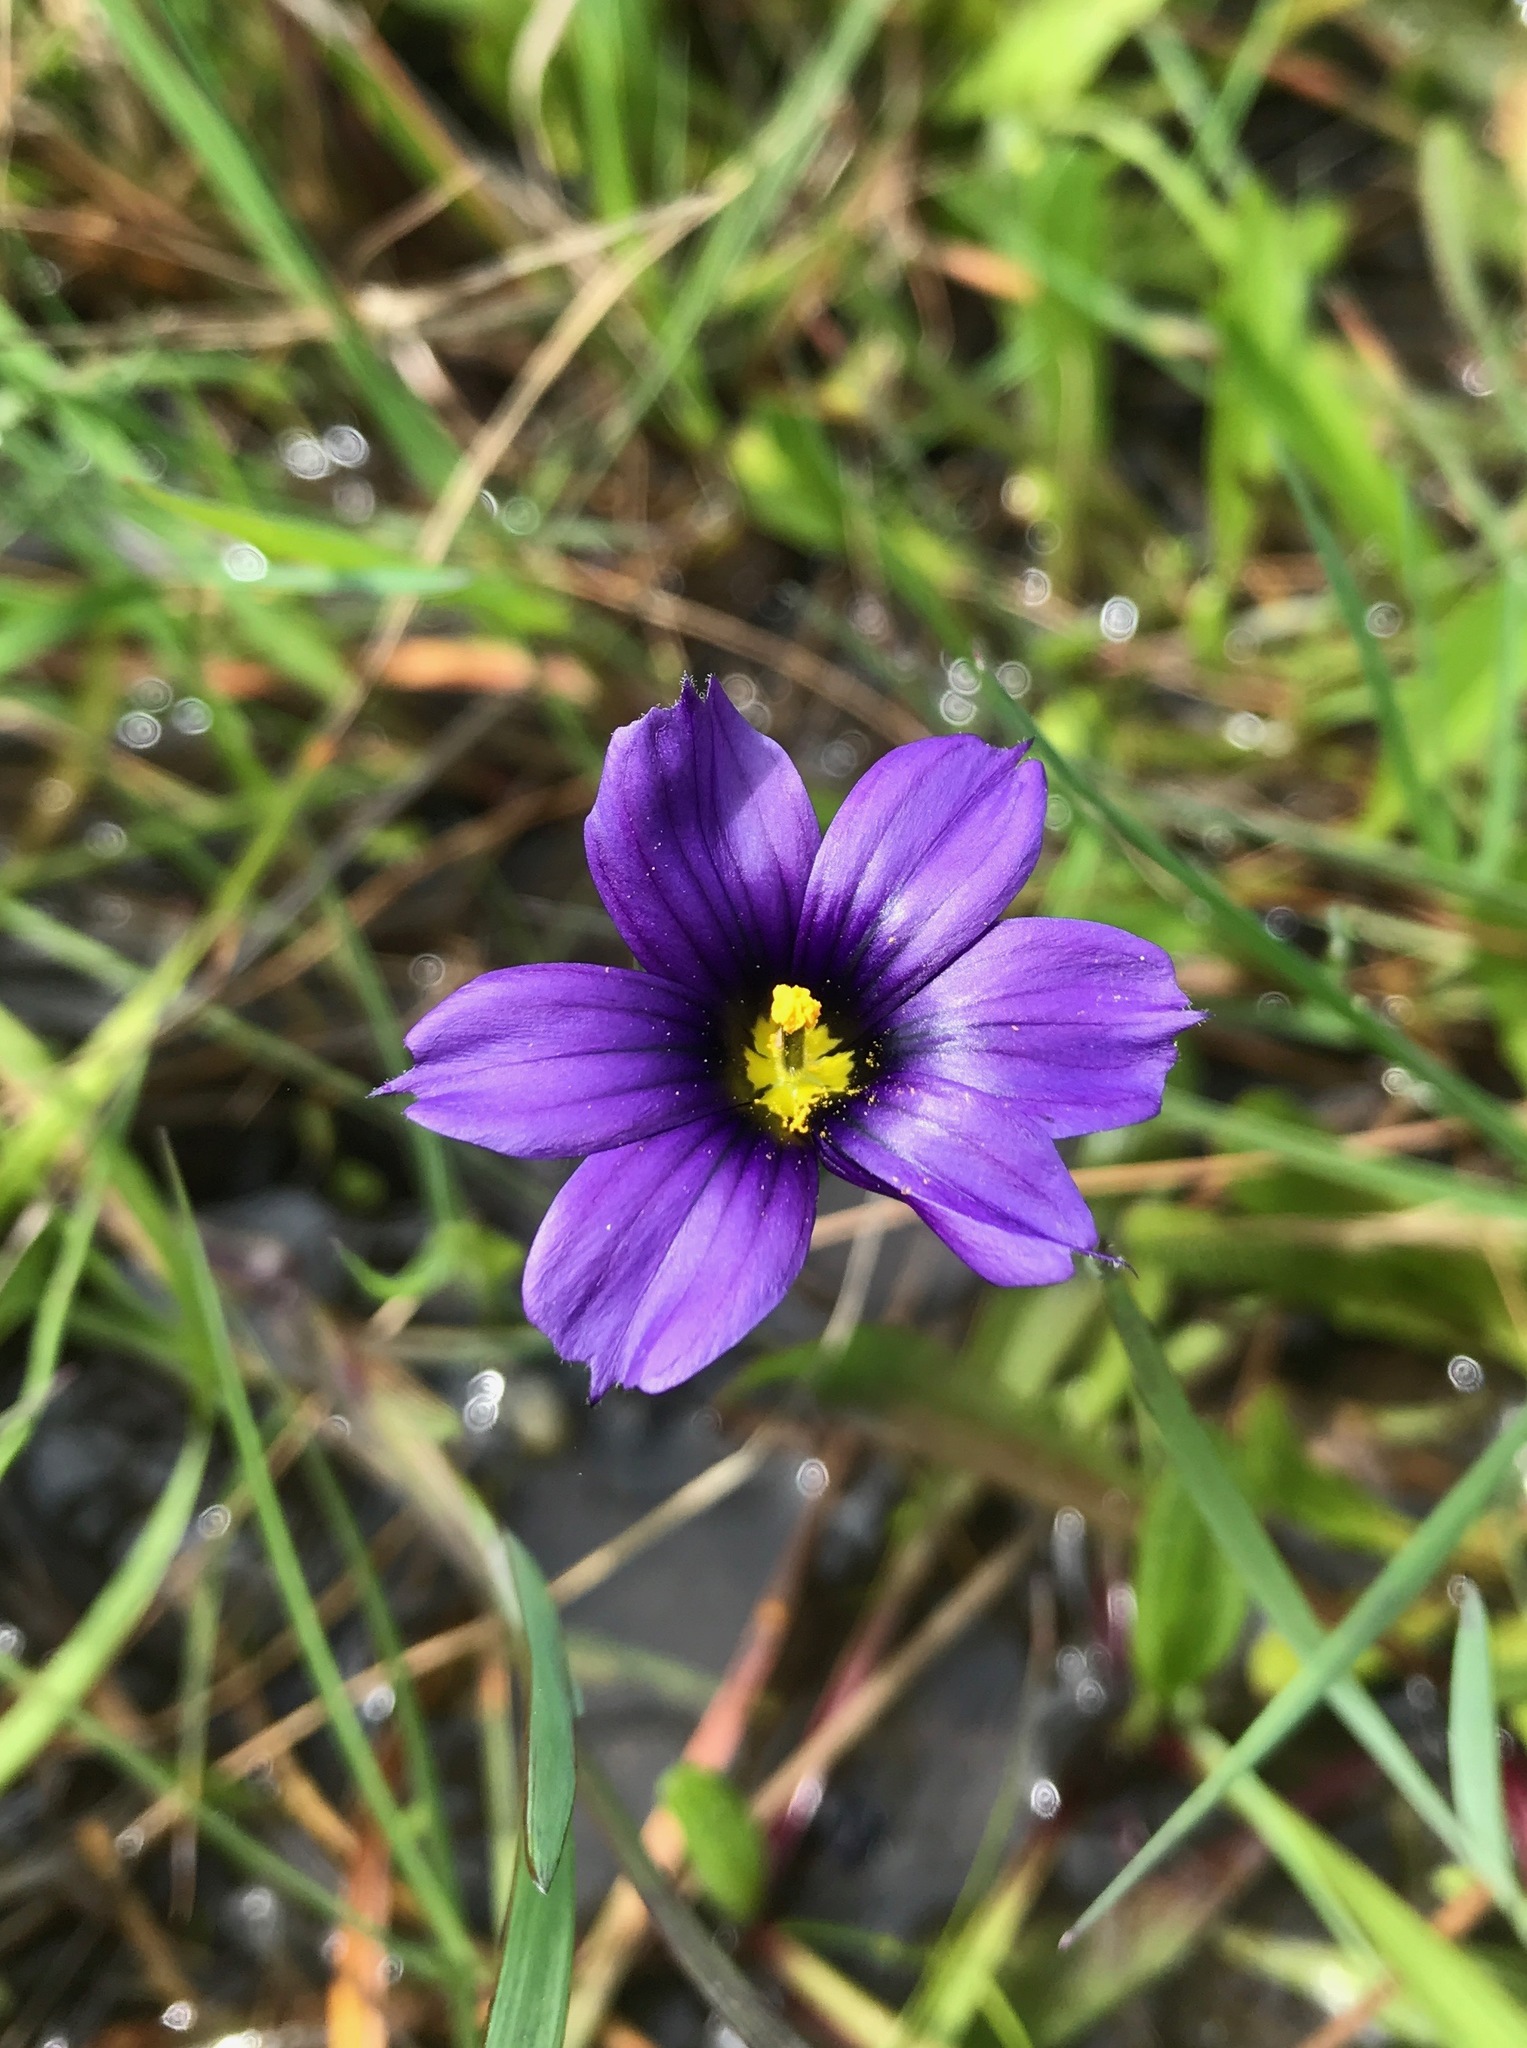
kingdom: Plantae
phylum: Tracheophyta
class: Liliopsida
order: Asparagales
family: Iridaceae
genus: Sisyrinchium
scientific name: Sisyrinchium bellum
